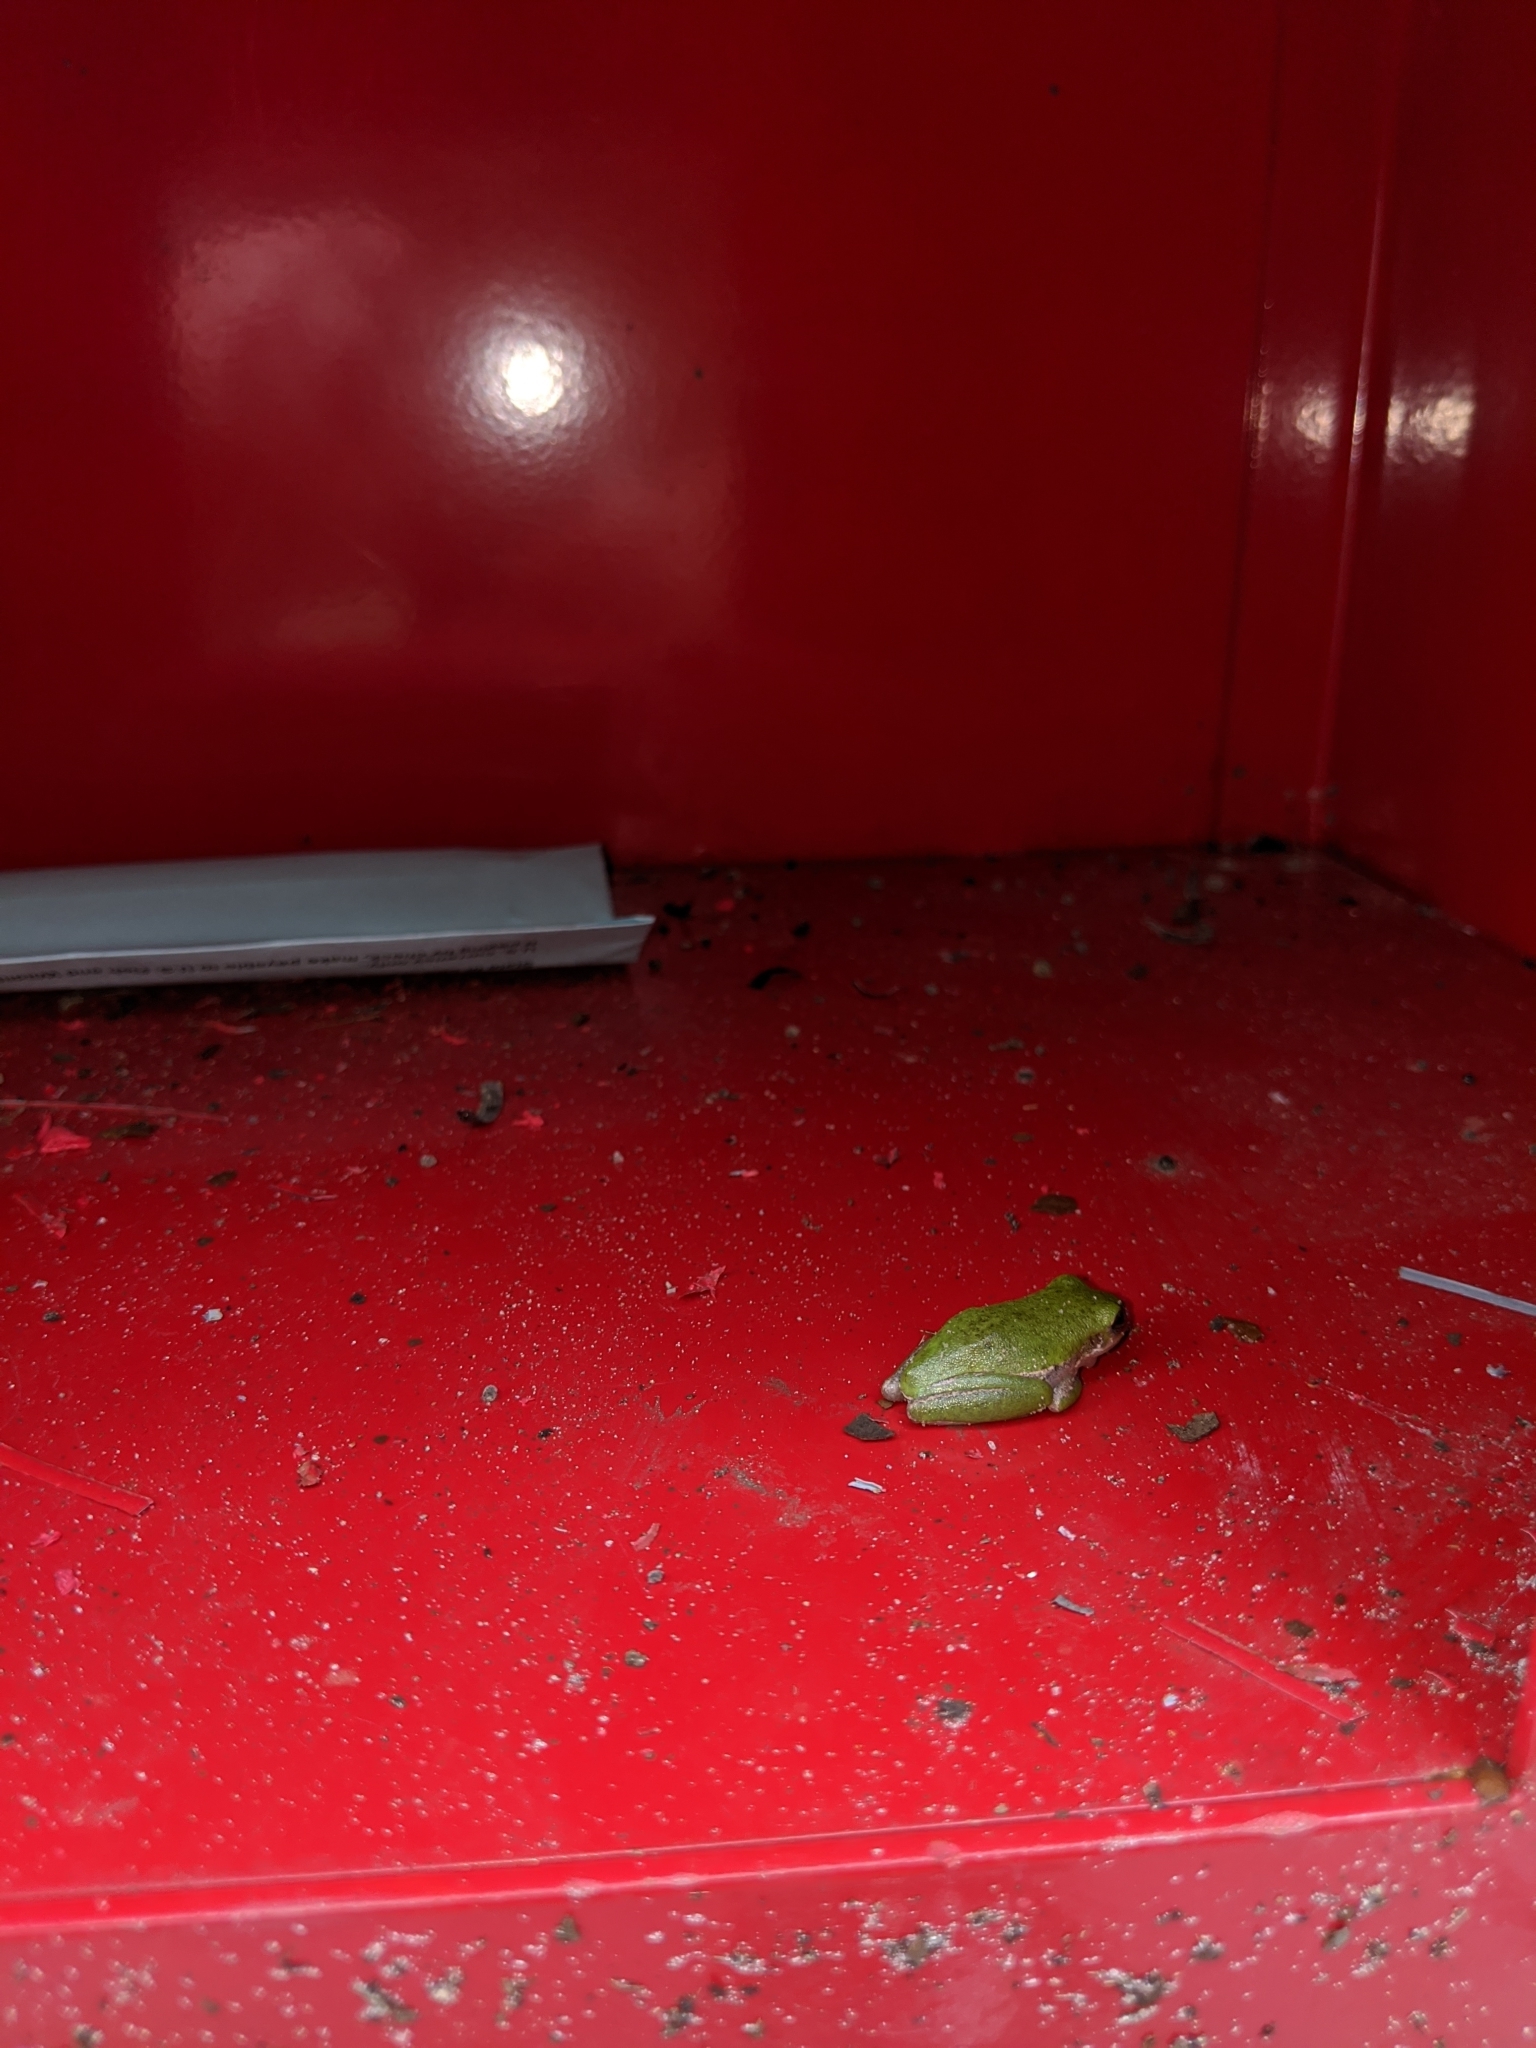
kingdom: Animalia
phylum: Chordata
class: Amphibia
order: Anura
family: Hylidae
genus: Dryophytes
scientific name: Dryophytes squirellus
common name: Squirrel treefrog
